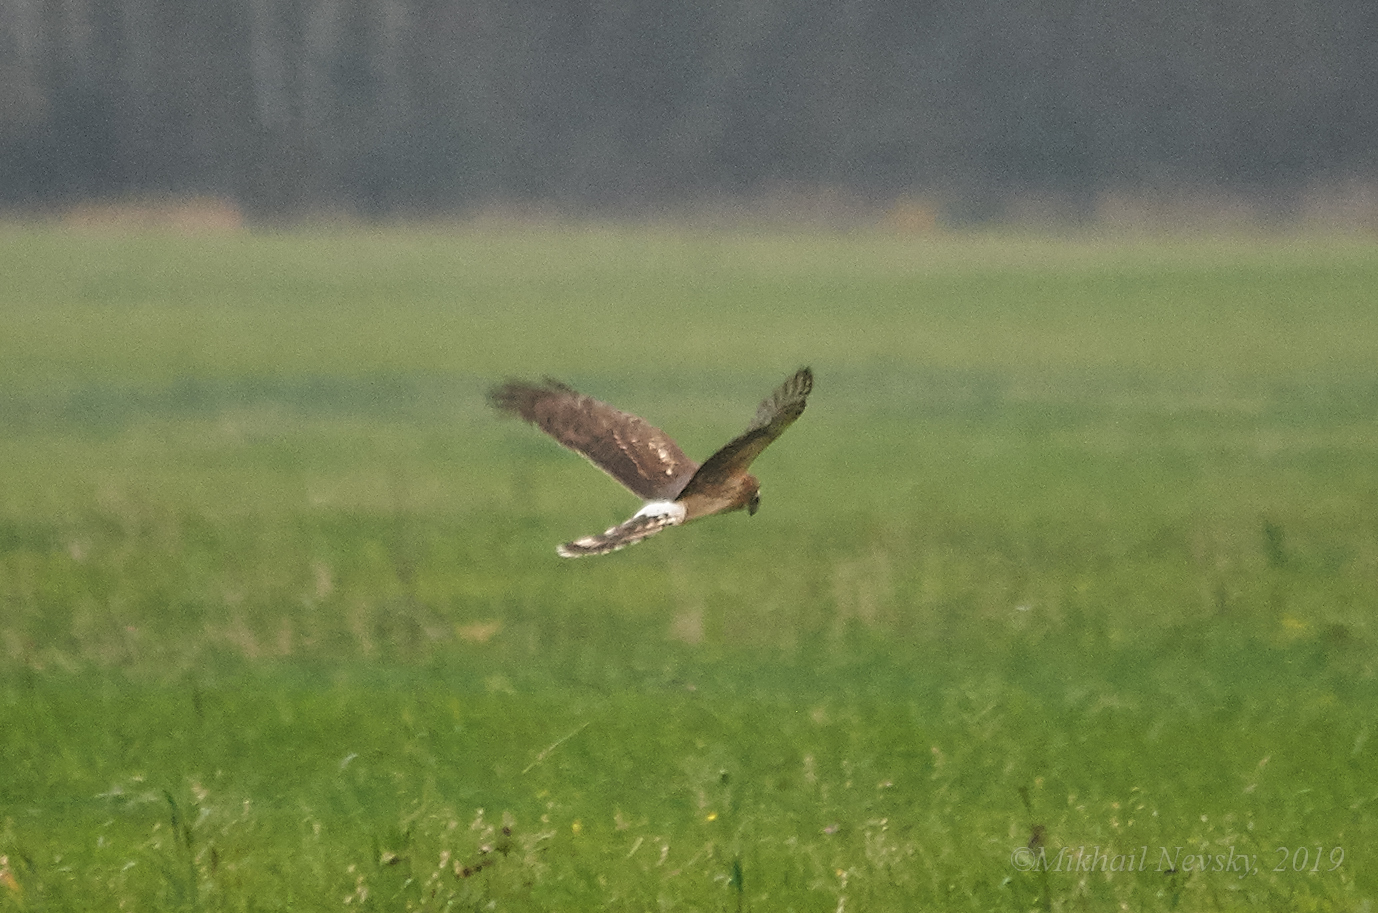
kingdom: Animalia
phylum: Chordata
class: Aves
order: Accipitriformes
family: Accipitridae
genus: Circus
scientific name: Circus cyaneus
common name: Hen harrier
